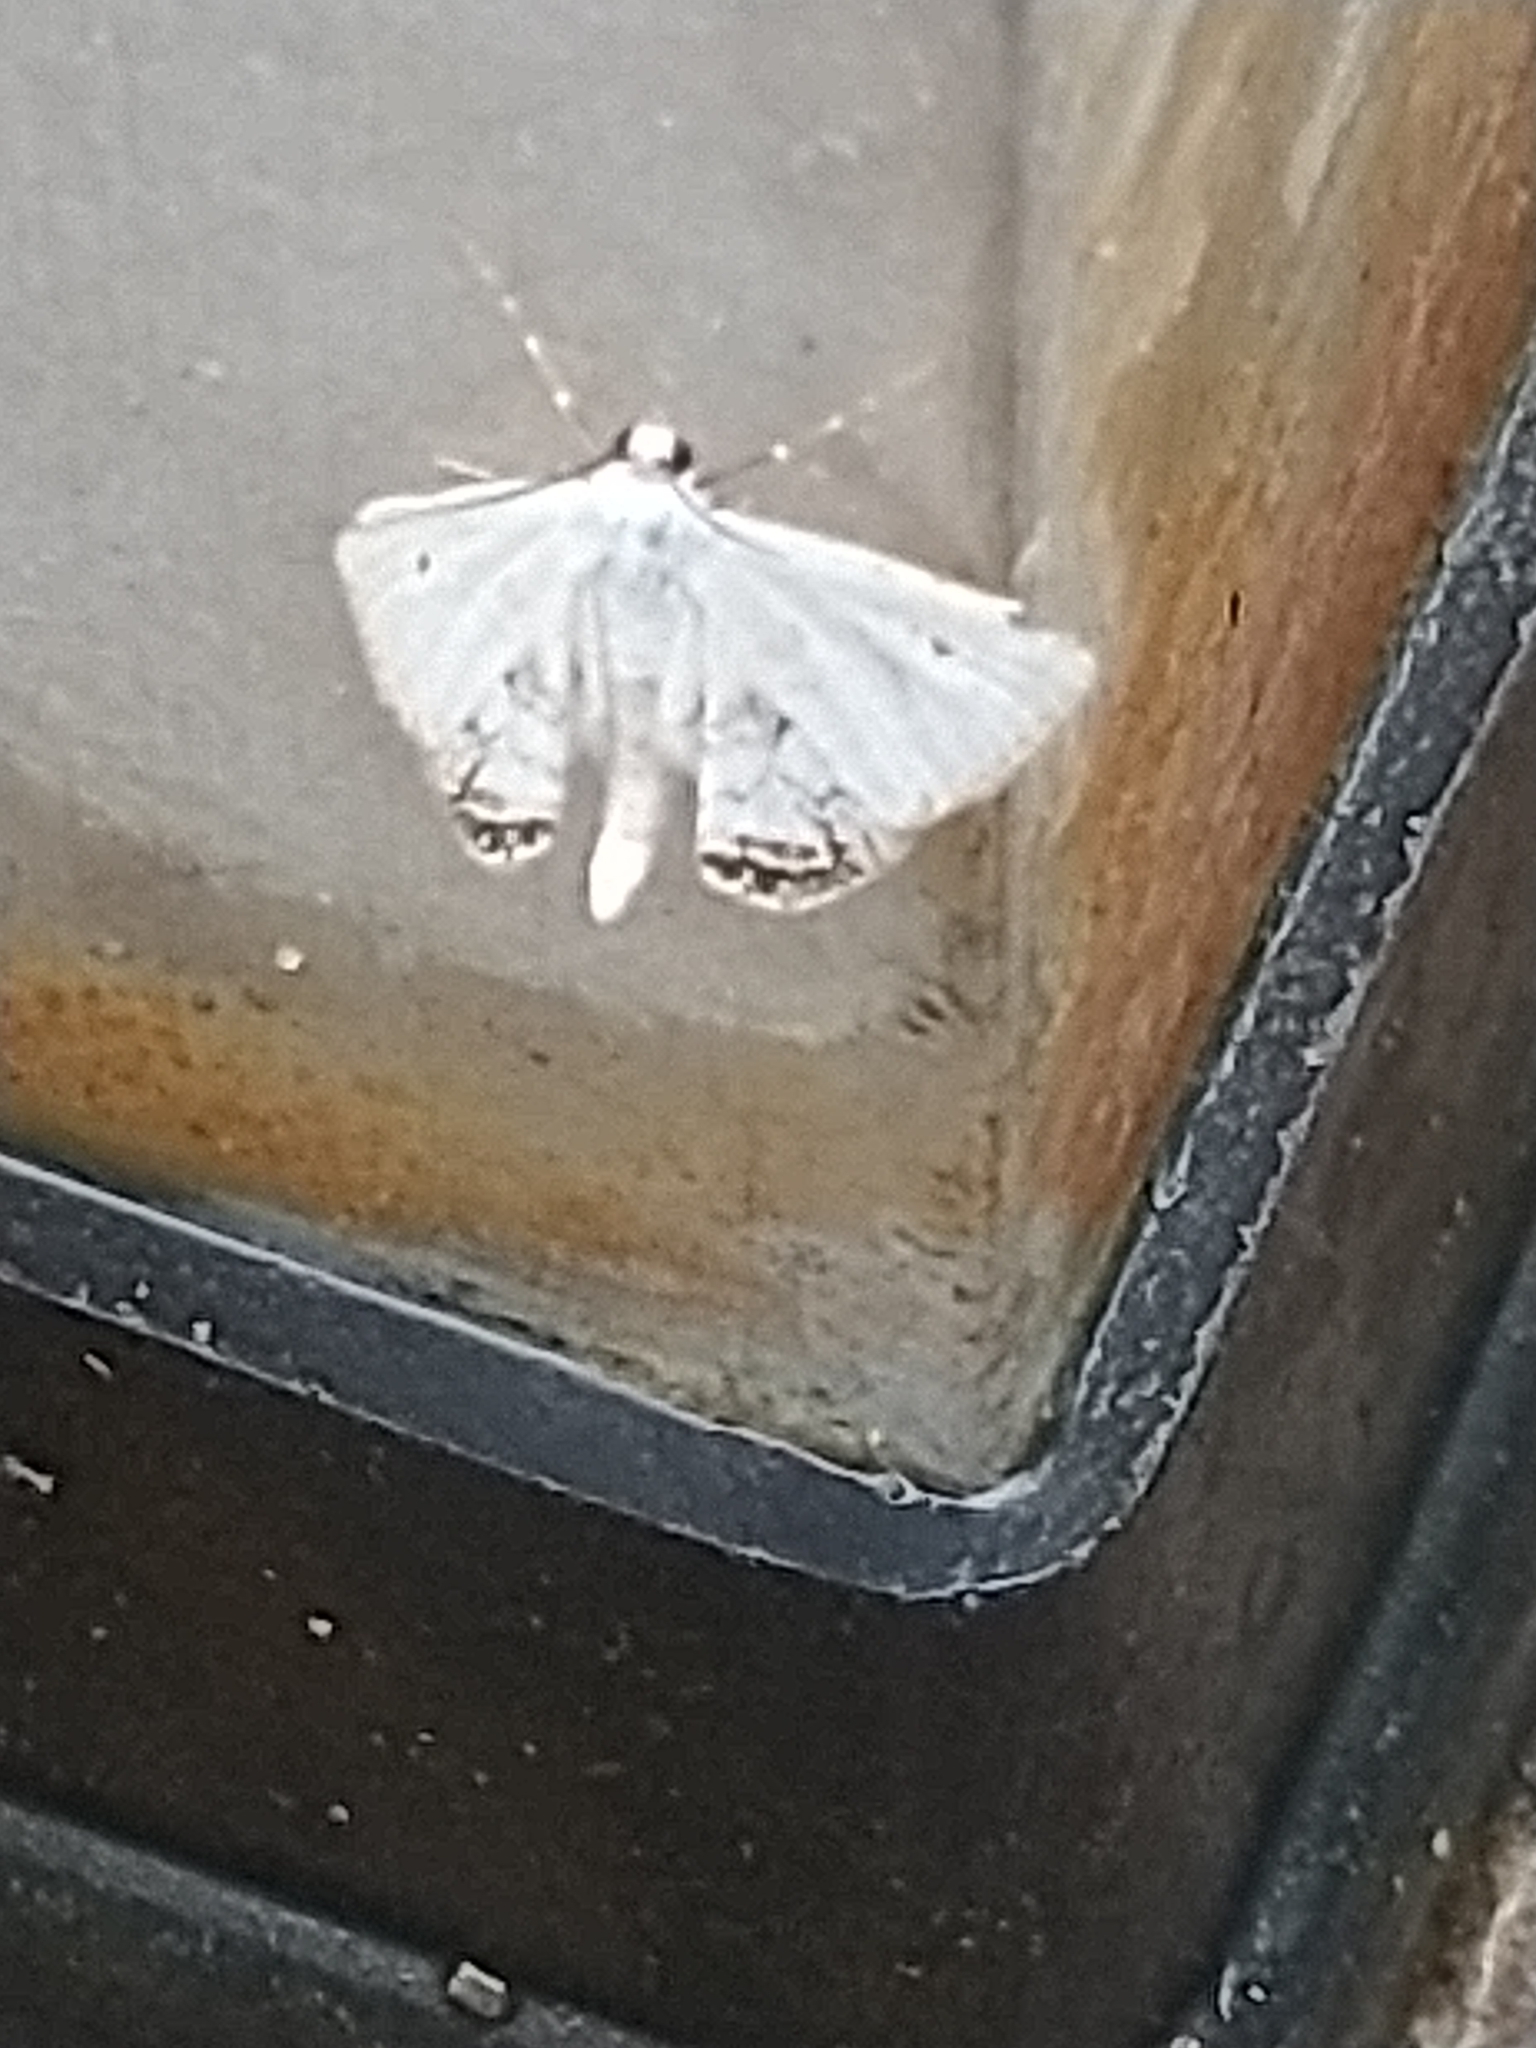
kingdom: Animalia
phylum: Arthropoda
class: Insecta
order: Lepidoptera
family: Crambidae
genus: Cataclysta
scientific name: Cataclysta lemnata
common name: Small china-mark
